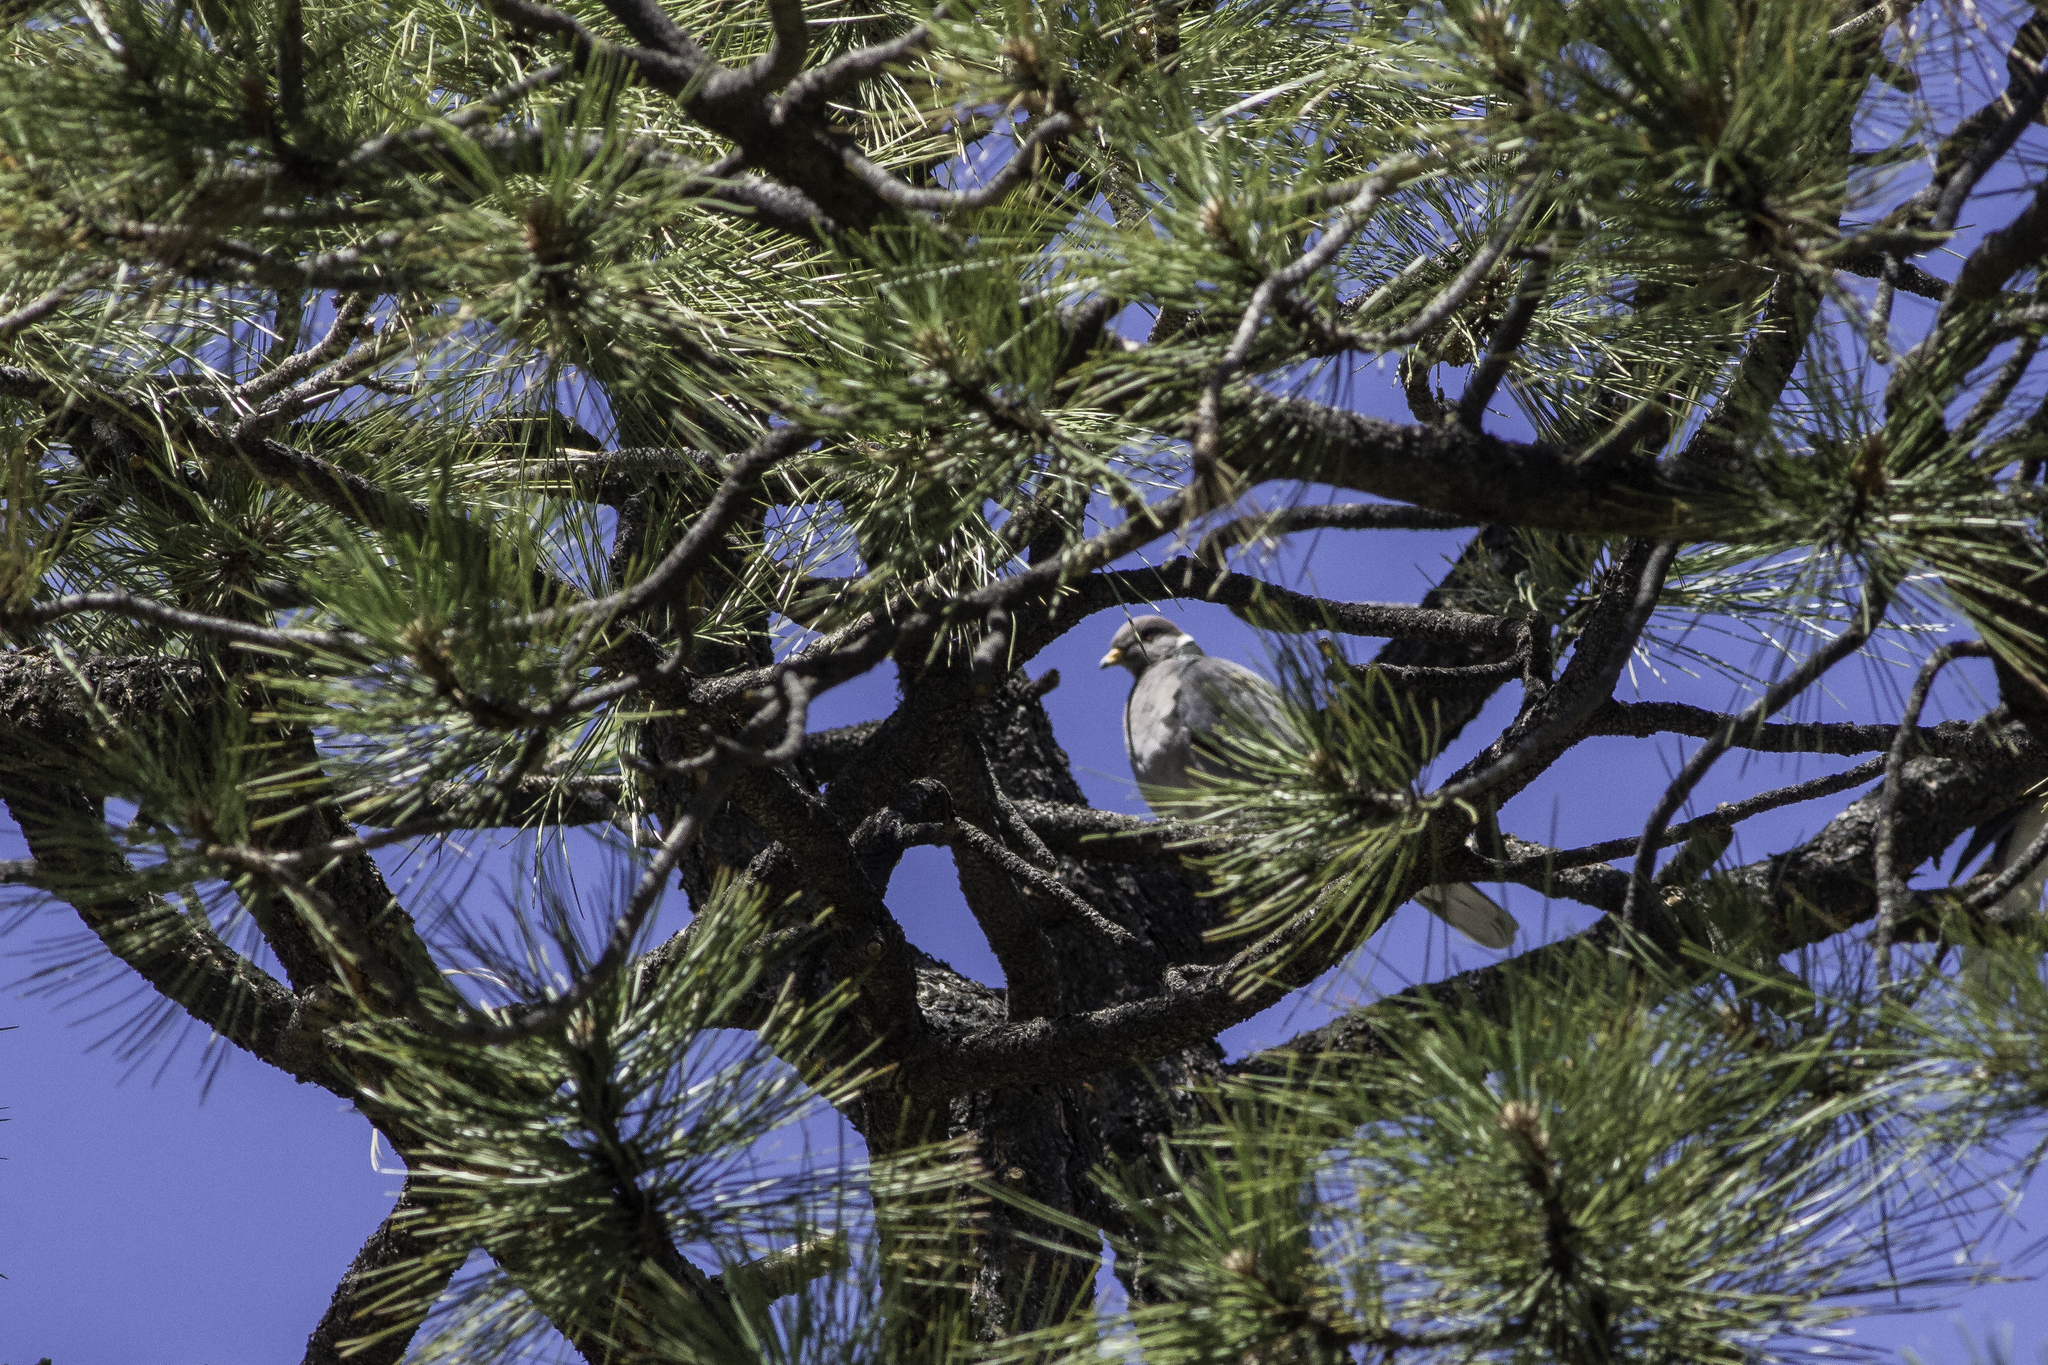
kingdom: Animalia
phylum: Chordata
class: Aves
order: Columbiformes
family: Columbidae
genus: Patagioenas
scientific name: Patagioenas fasciata
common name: Band-tailed pigeon
